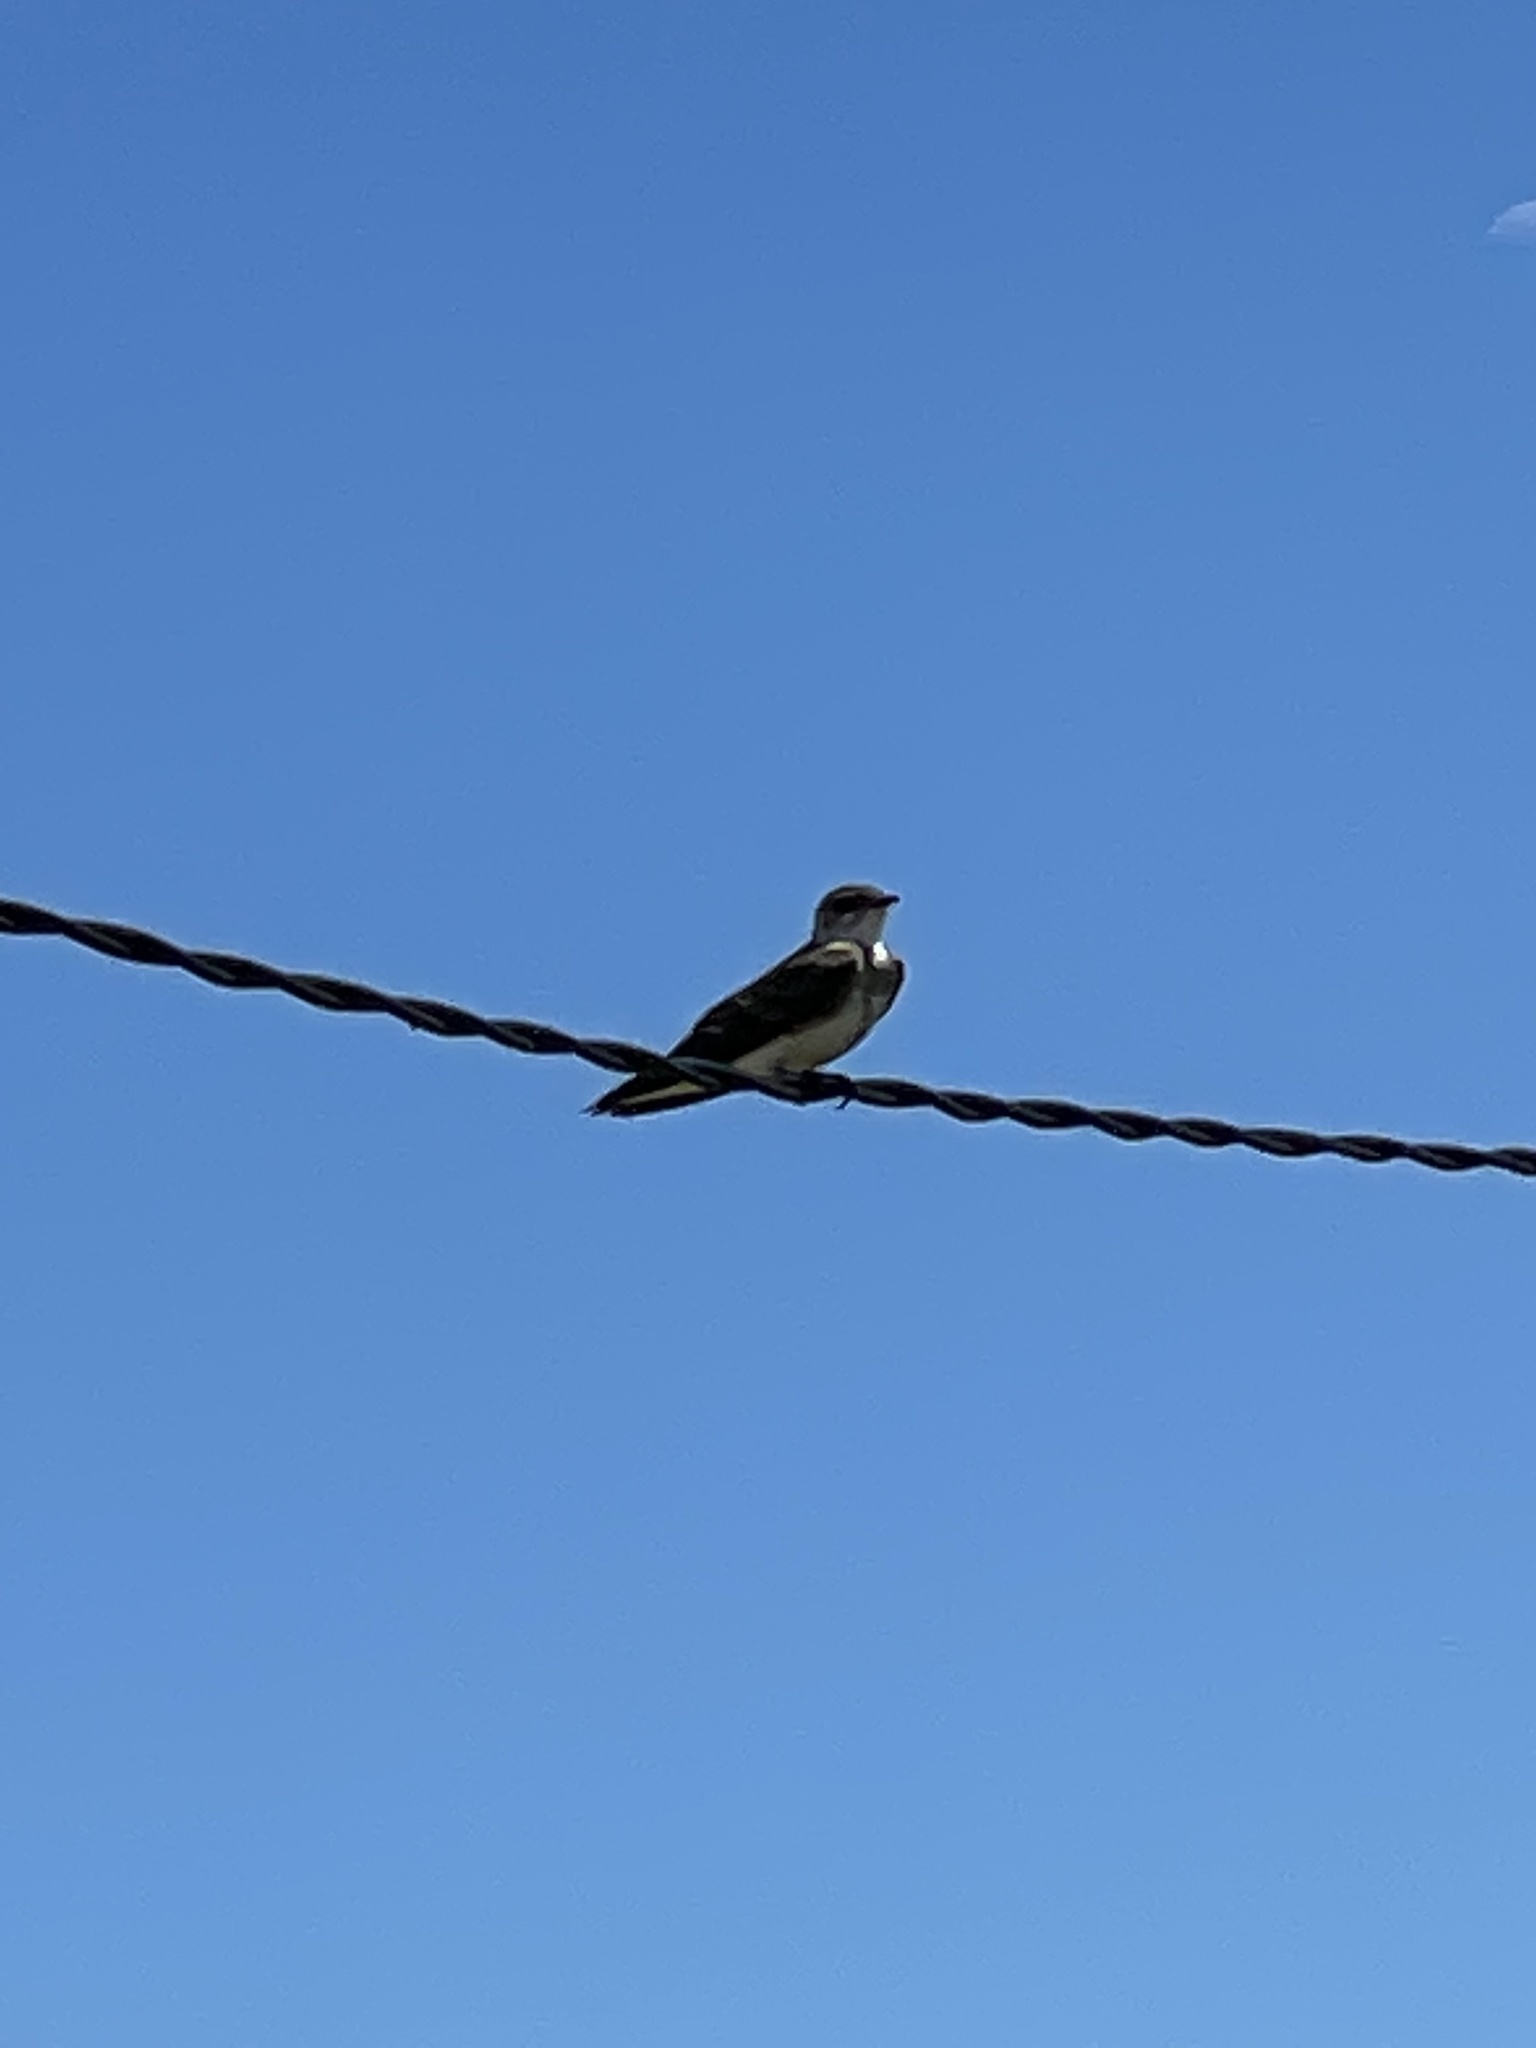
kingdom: Animalia
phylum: Chordata
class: Aves
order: Passeriformes
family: Hirundinidae
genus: Progne
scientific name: Progne tapera
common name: Brown-chested martin
